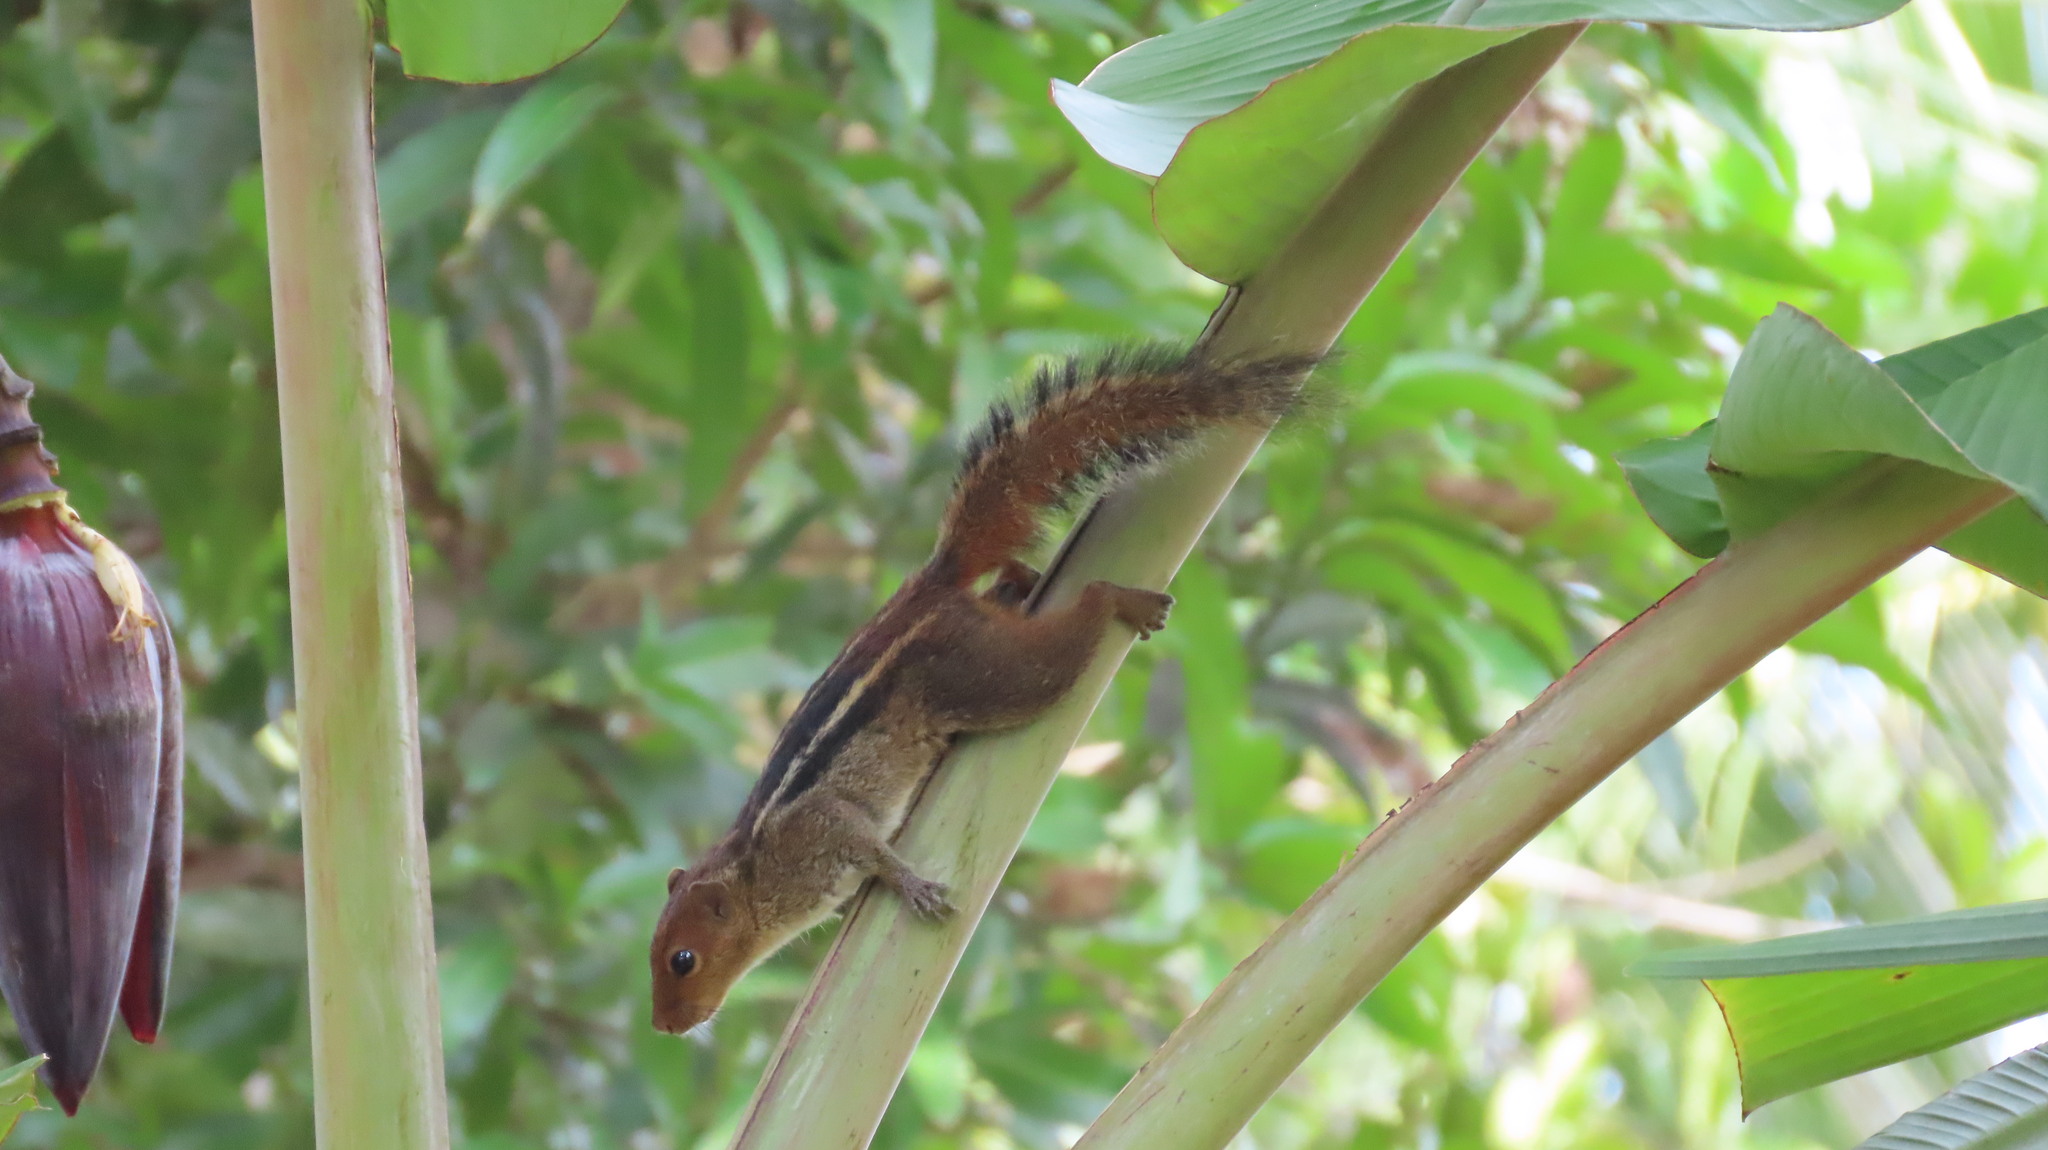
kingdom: Animalia
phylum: Chordata
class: Mammalia
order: Rodentia
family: Sciuridae
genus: Funambulus
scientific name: Funambulus tristriatus
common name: Jungle palm squirrel
